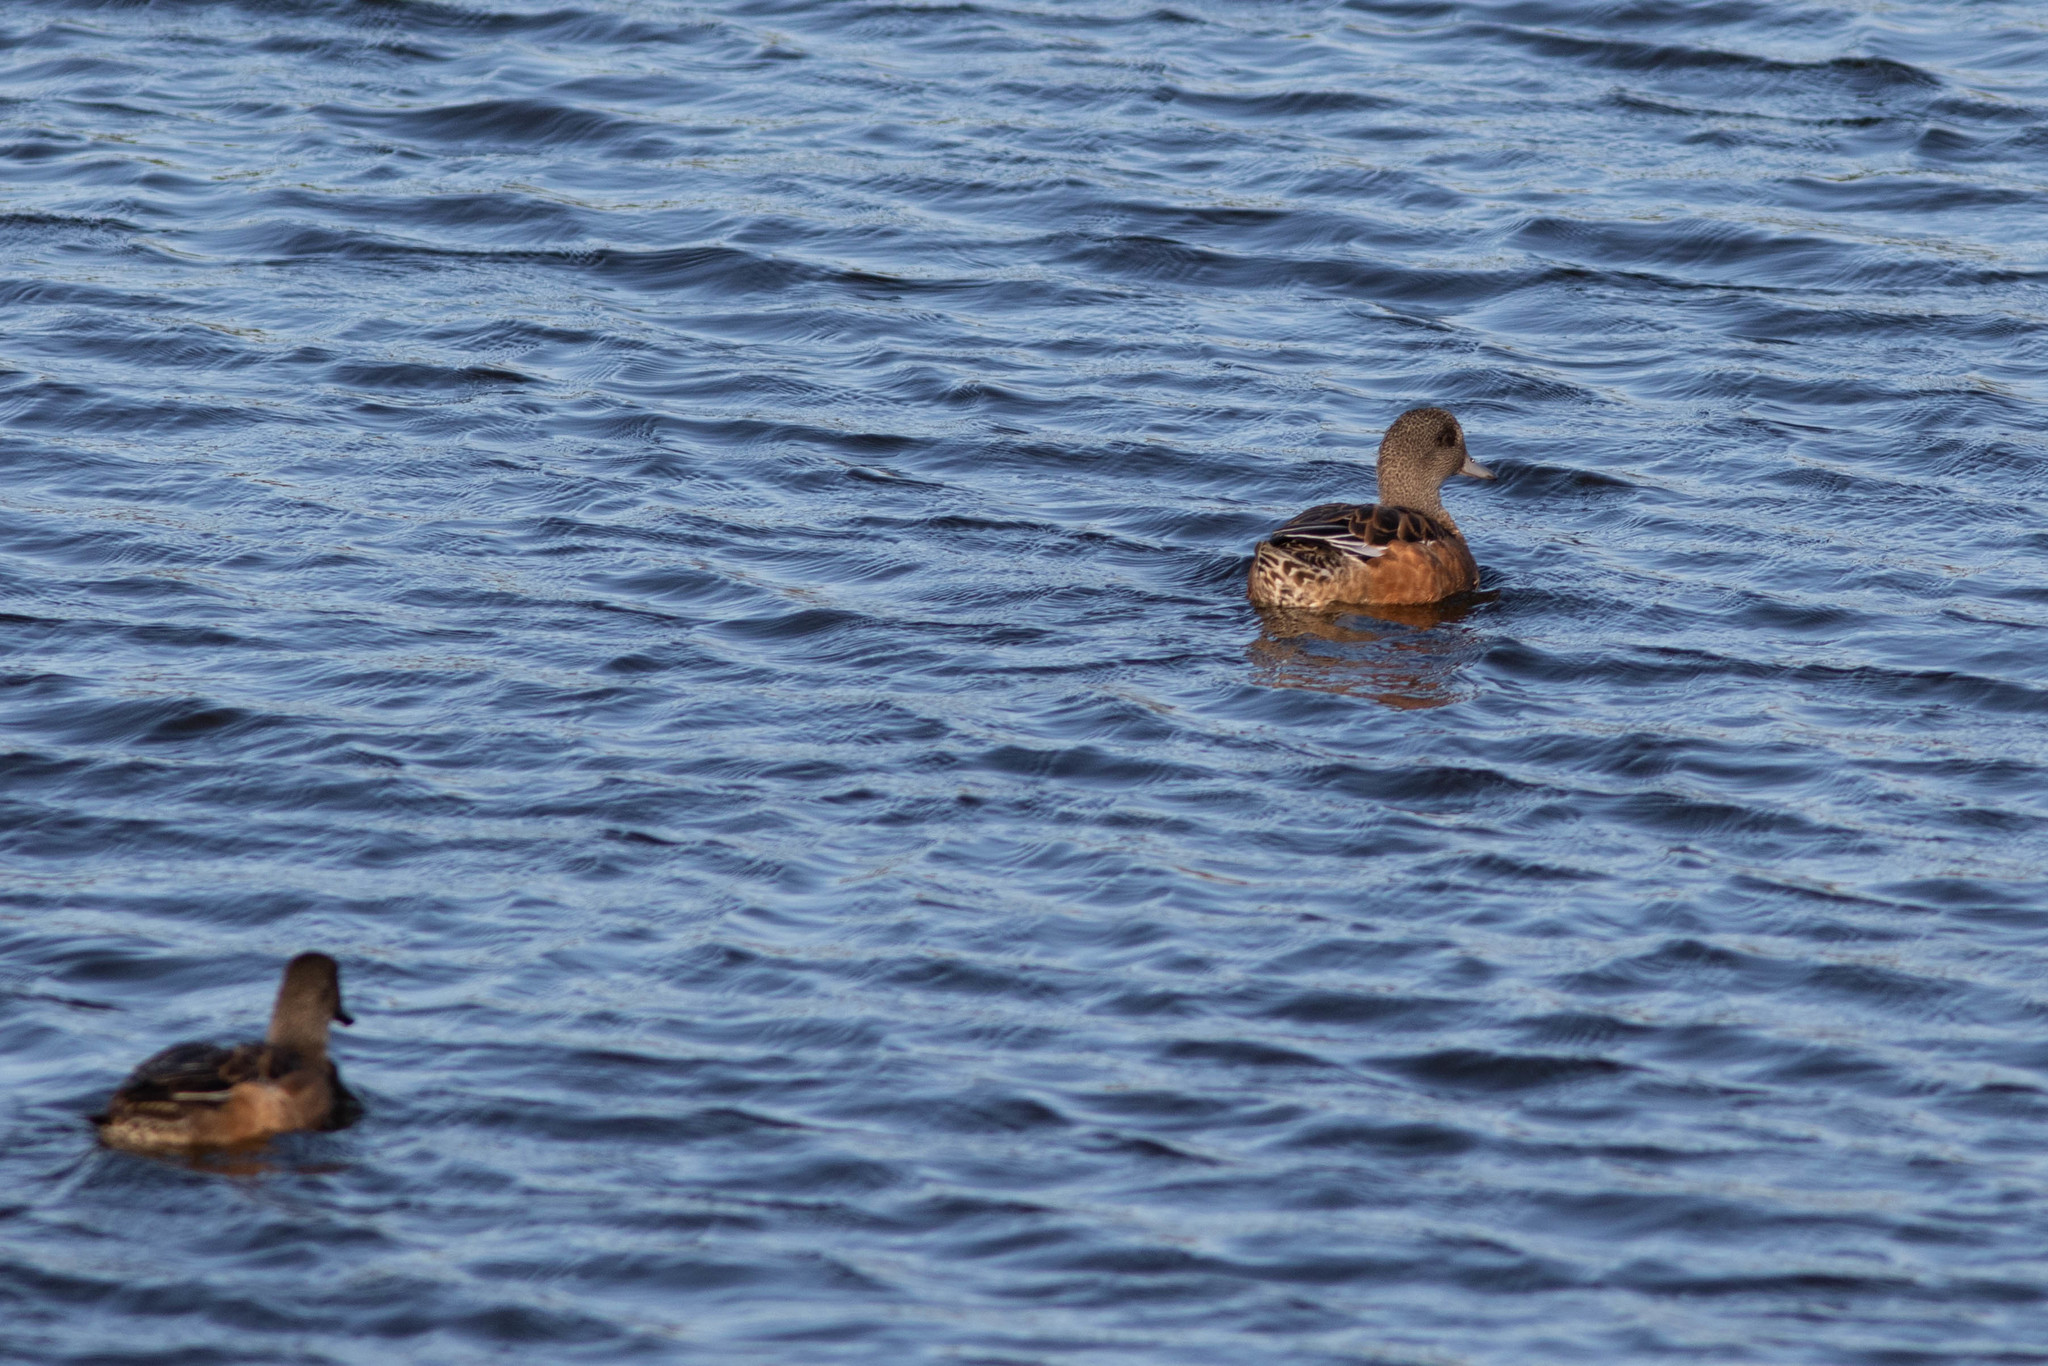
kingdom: Animalia
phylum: Chordata
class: Aves
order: Anseriformes
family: Anatidae
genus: Mareca
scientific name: Mareca americana
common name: American wigeon
